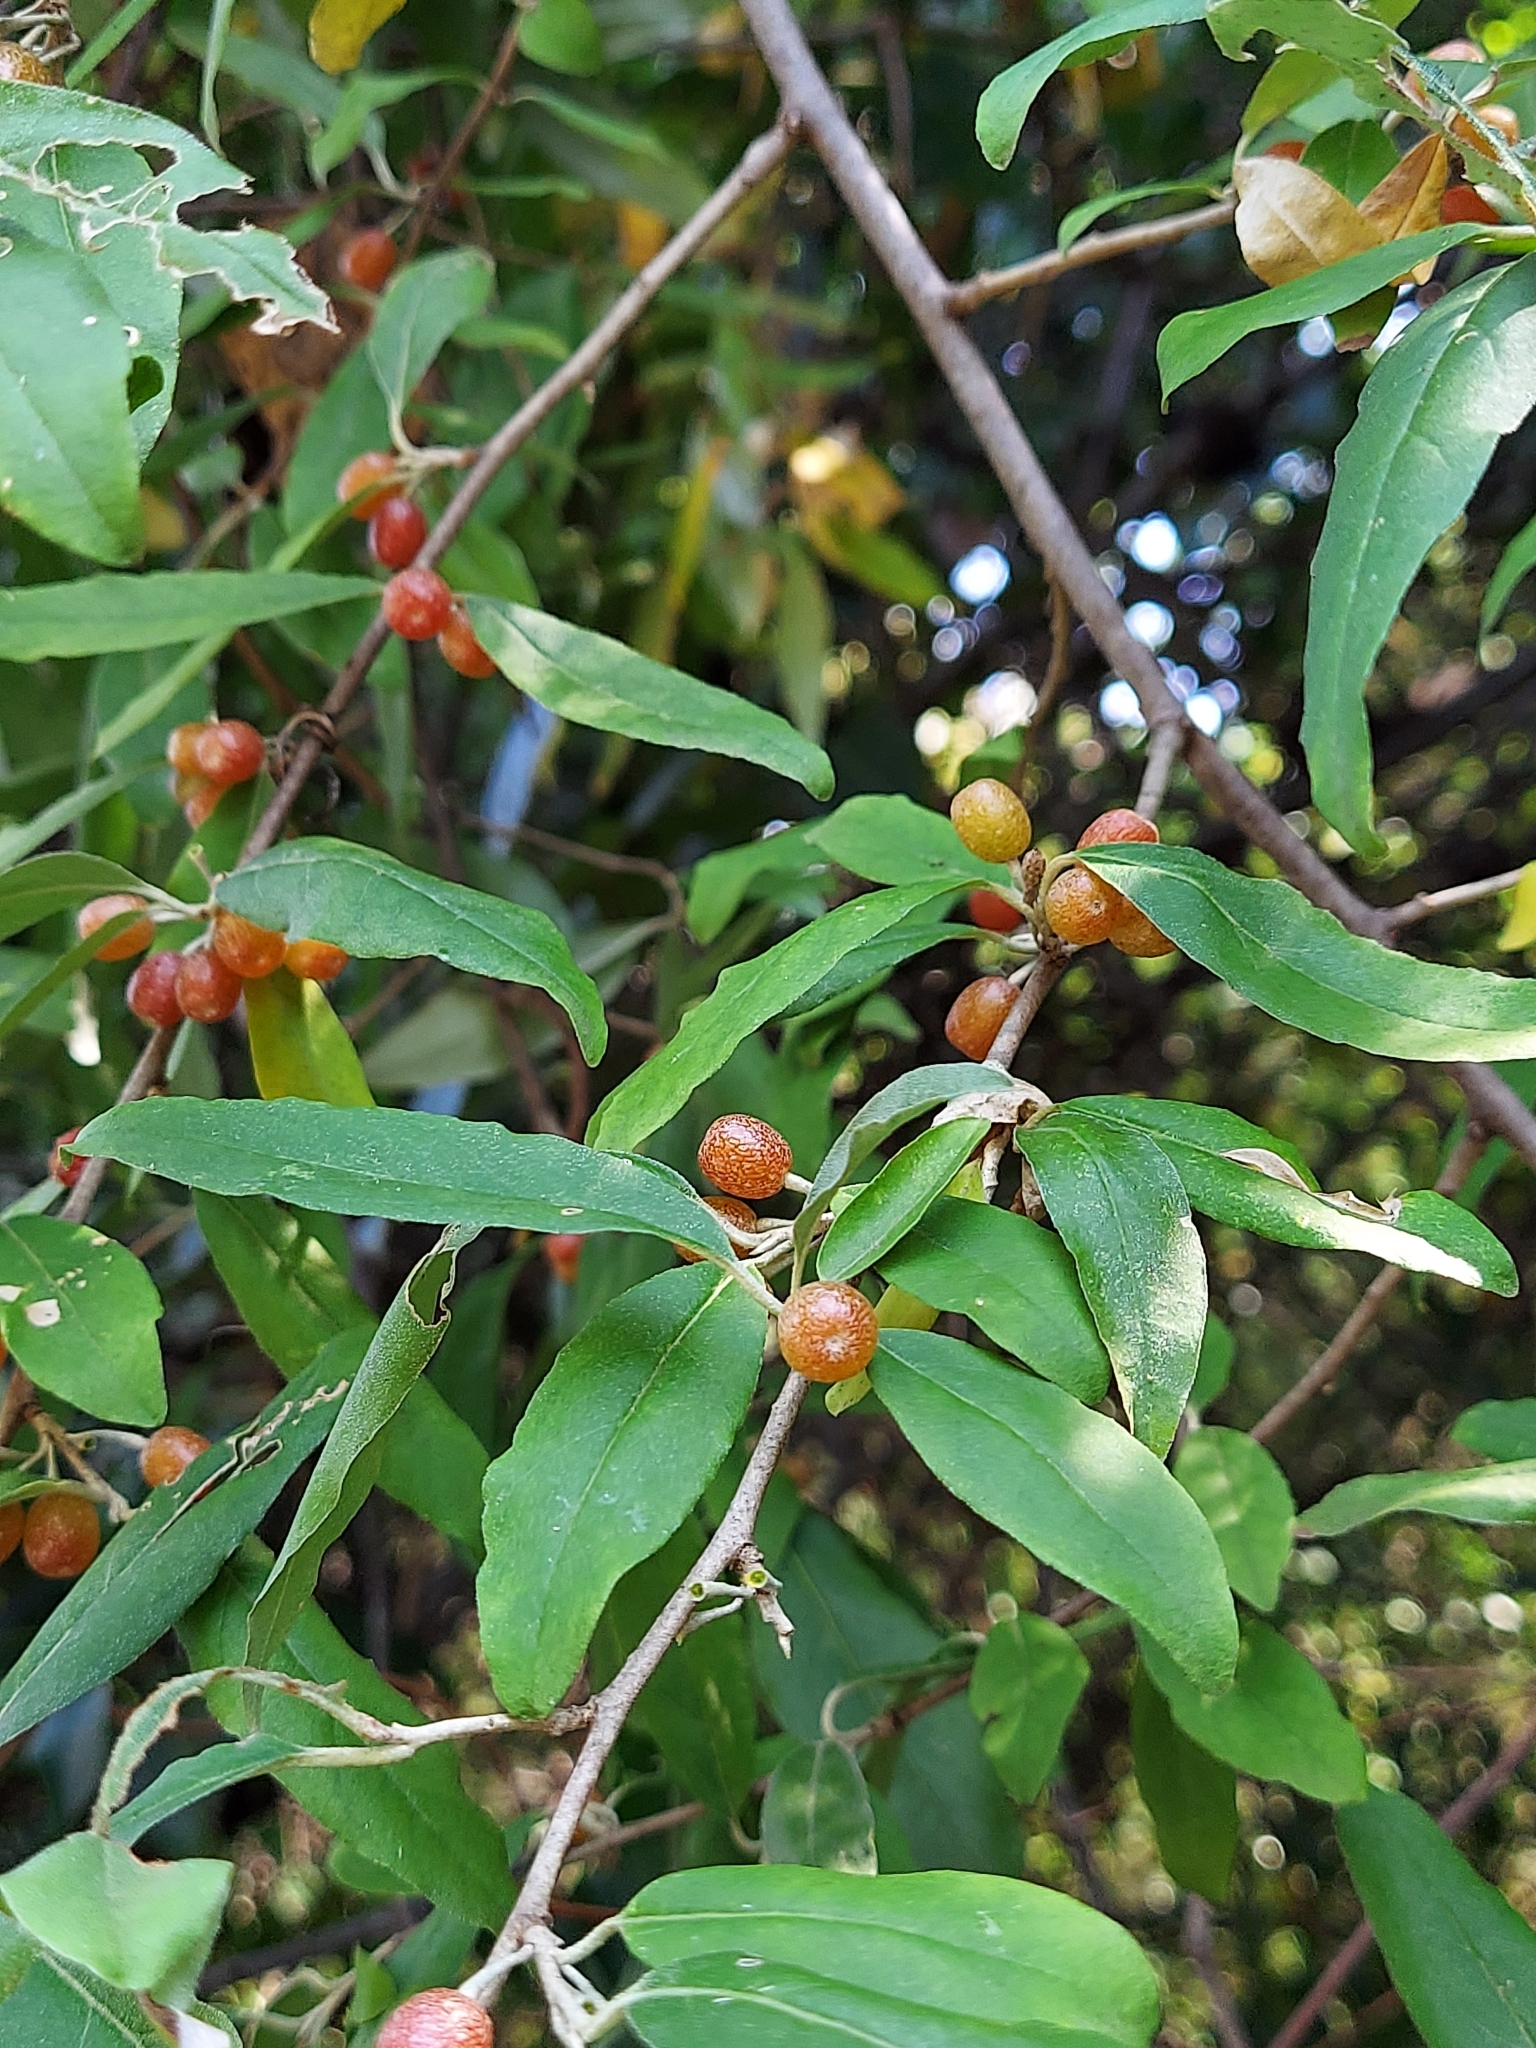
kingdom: Plantae
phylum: Tracheophyta
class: Magnoliopsida
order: Rosales
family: Elaeagnaceae
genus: Elaeagnus
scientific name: Elaeagnus umbellata
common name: Autumn olive
